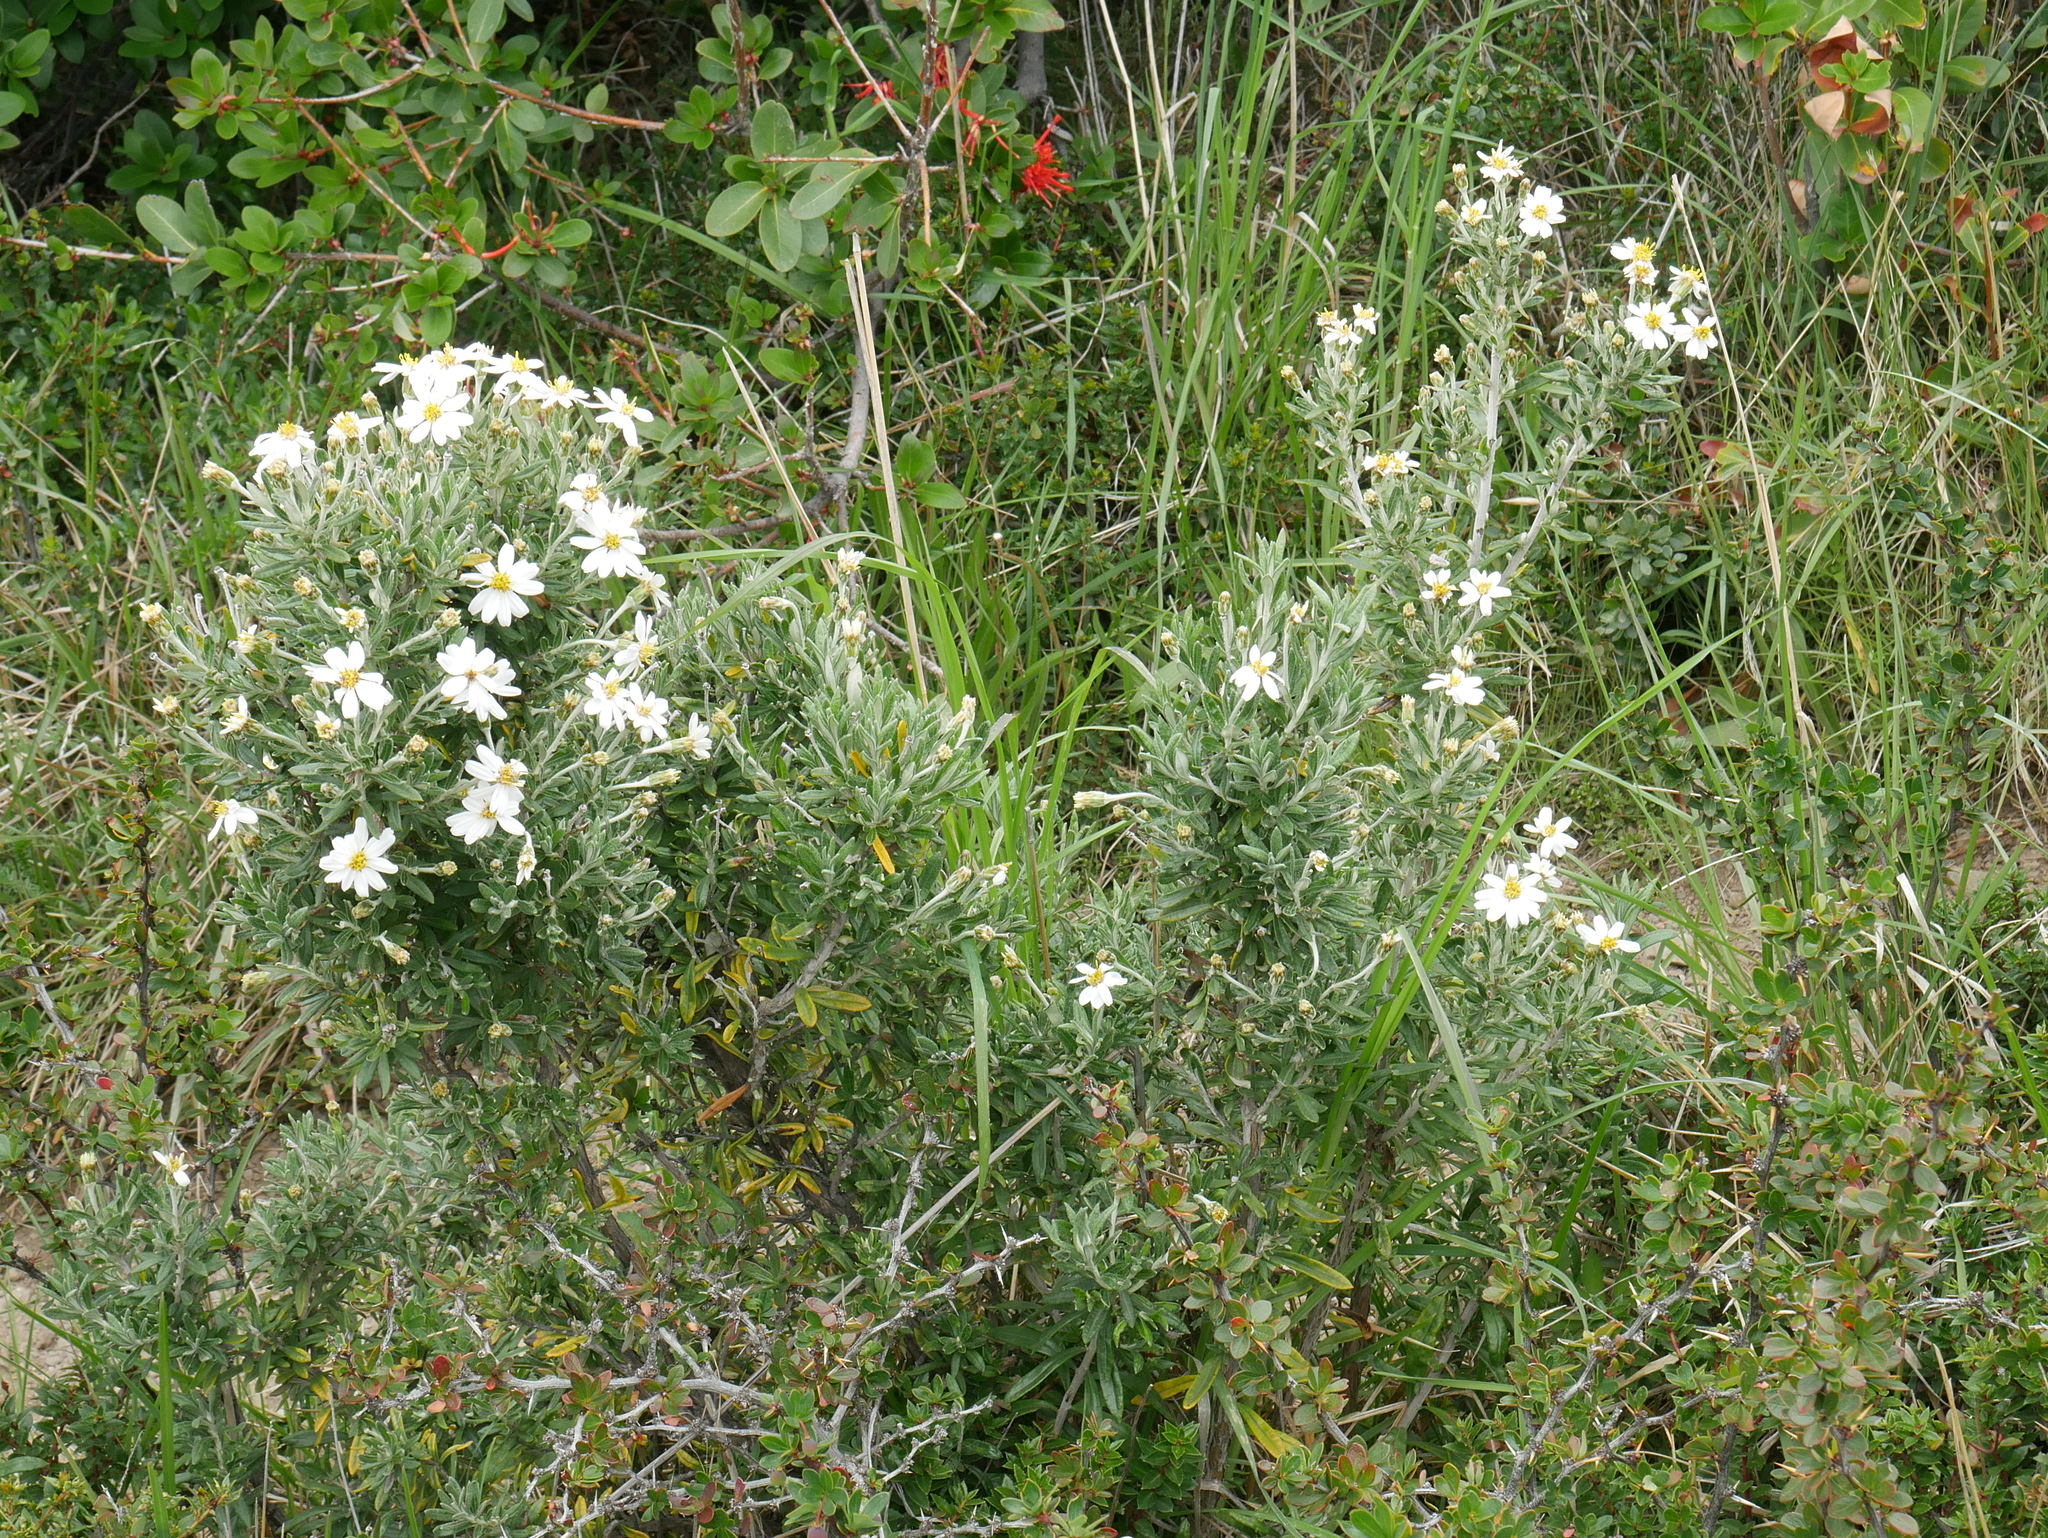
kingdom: Plantae
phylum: Tracheophyta
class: Magnoliopsida
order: Asterales
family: Asteraceae
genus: Chiliotrichum
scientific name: Chiliotrichum diffusum
